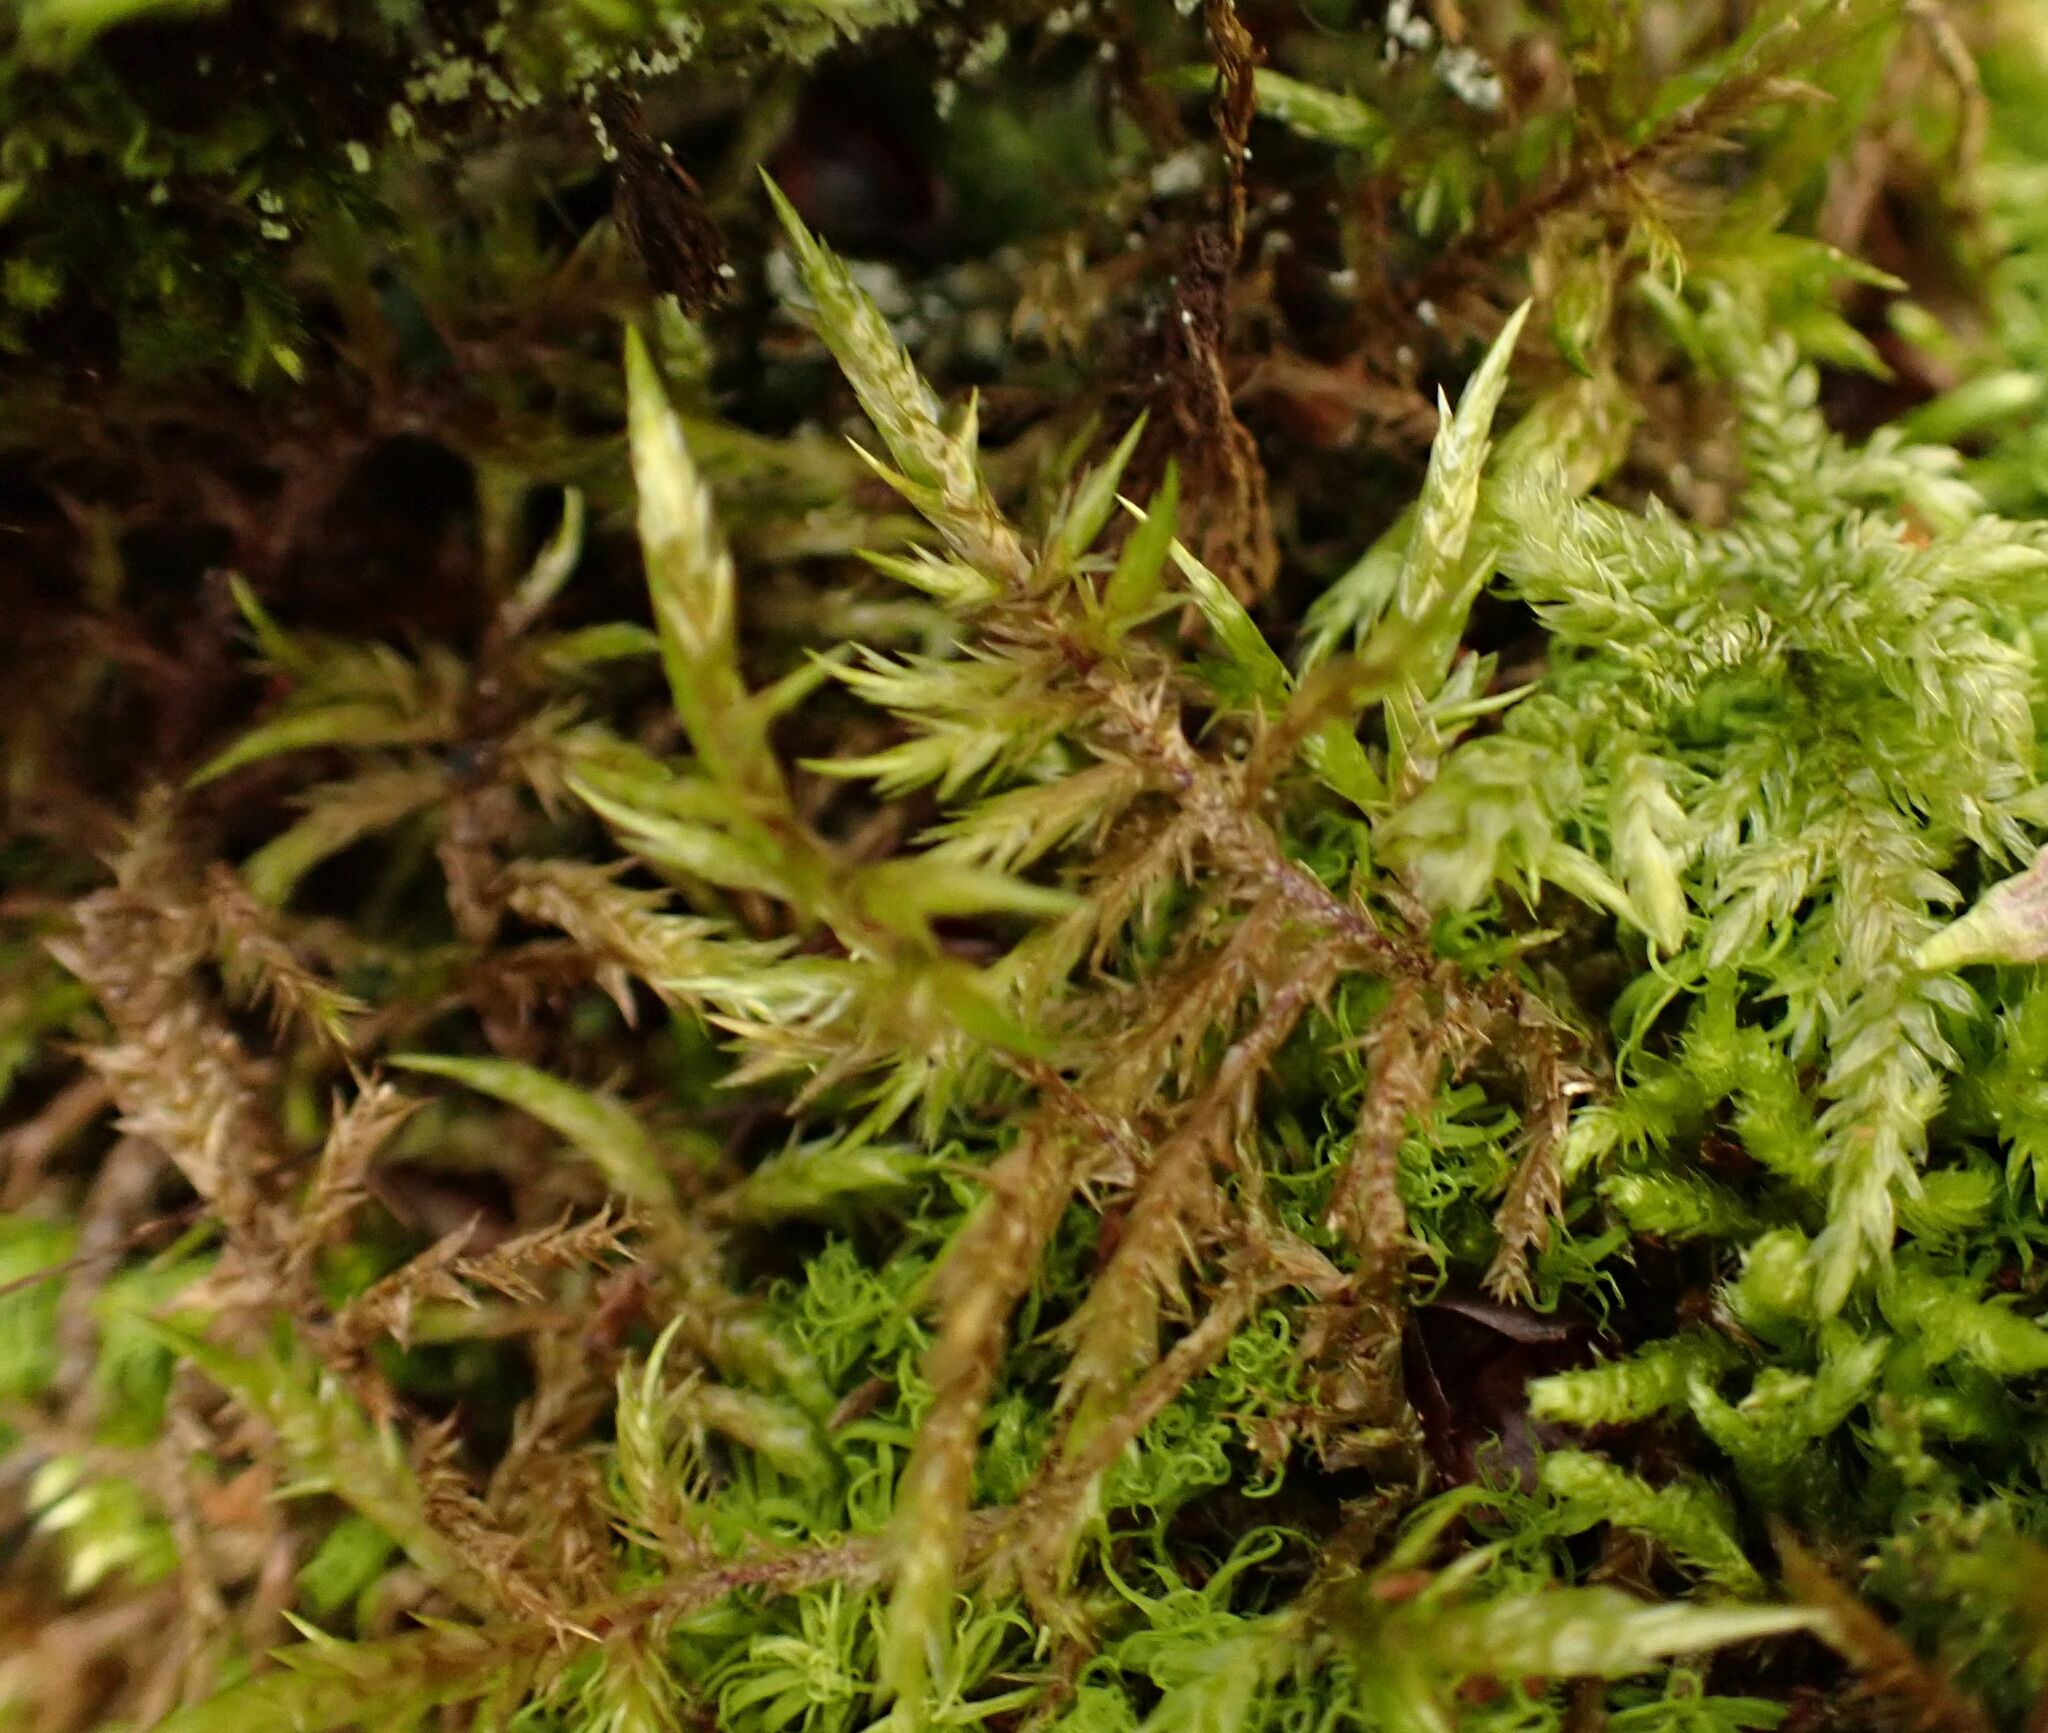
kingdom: Plantae
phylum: Bryophyta
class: Bryopsida
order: Hypnales
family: Pylaisiaceae
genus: Calliergonella
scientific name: Calliergonella cuspidata
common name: Common large wetland moss
